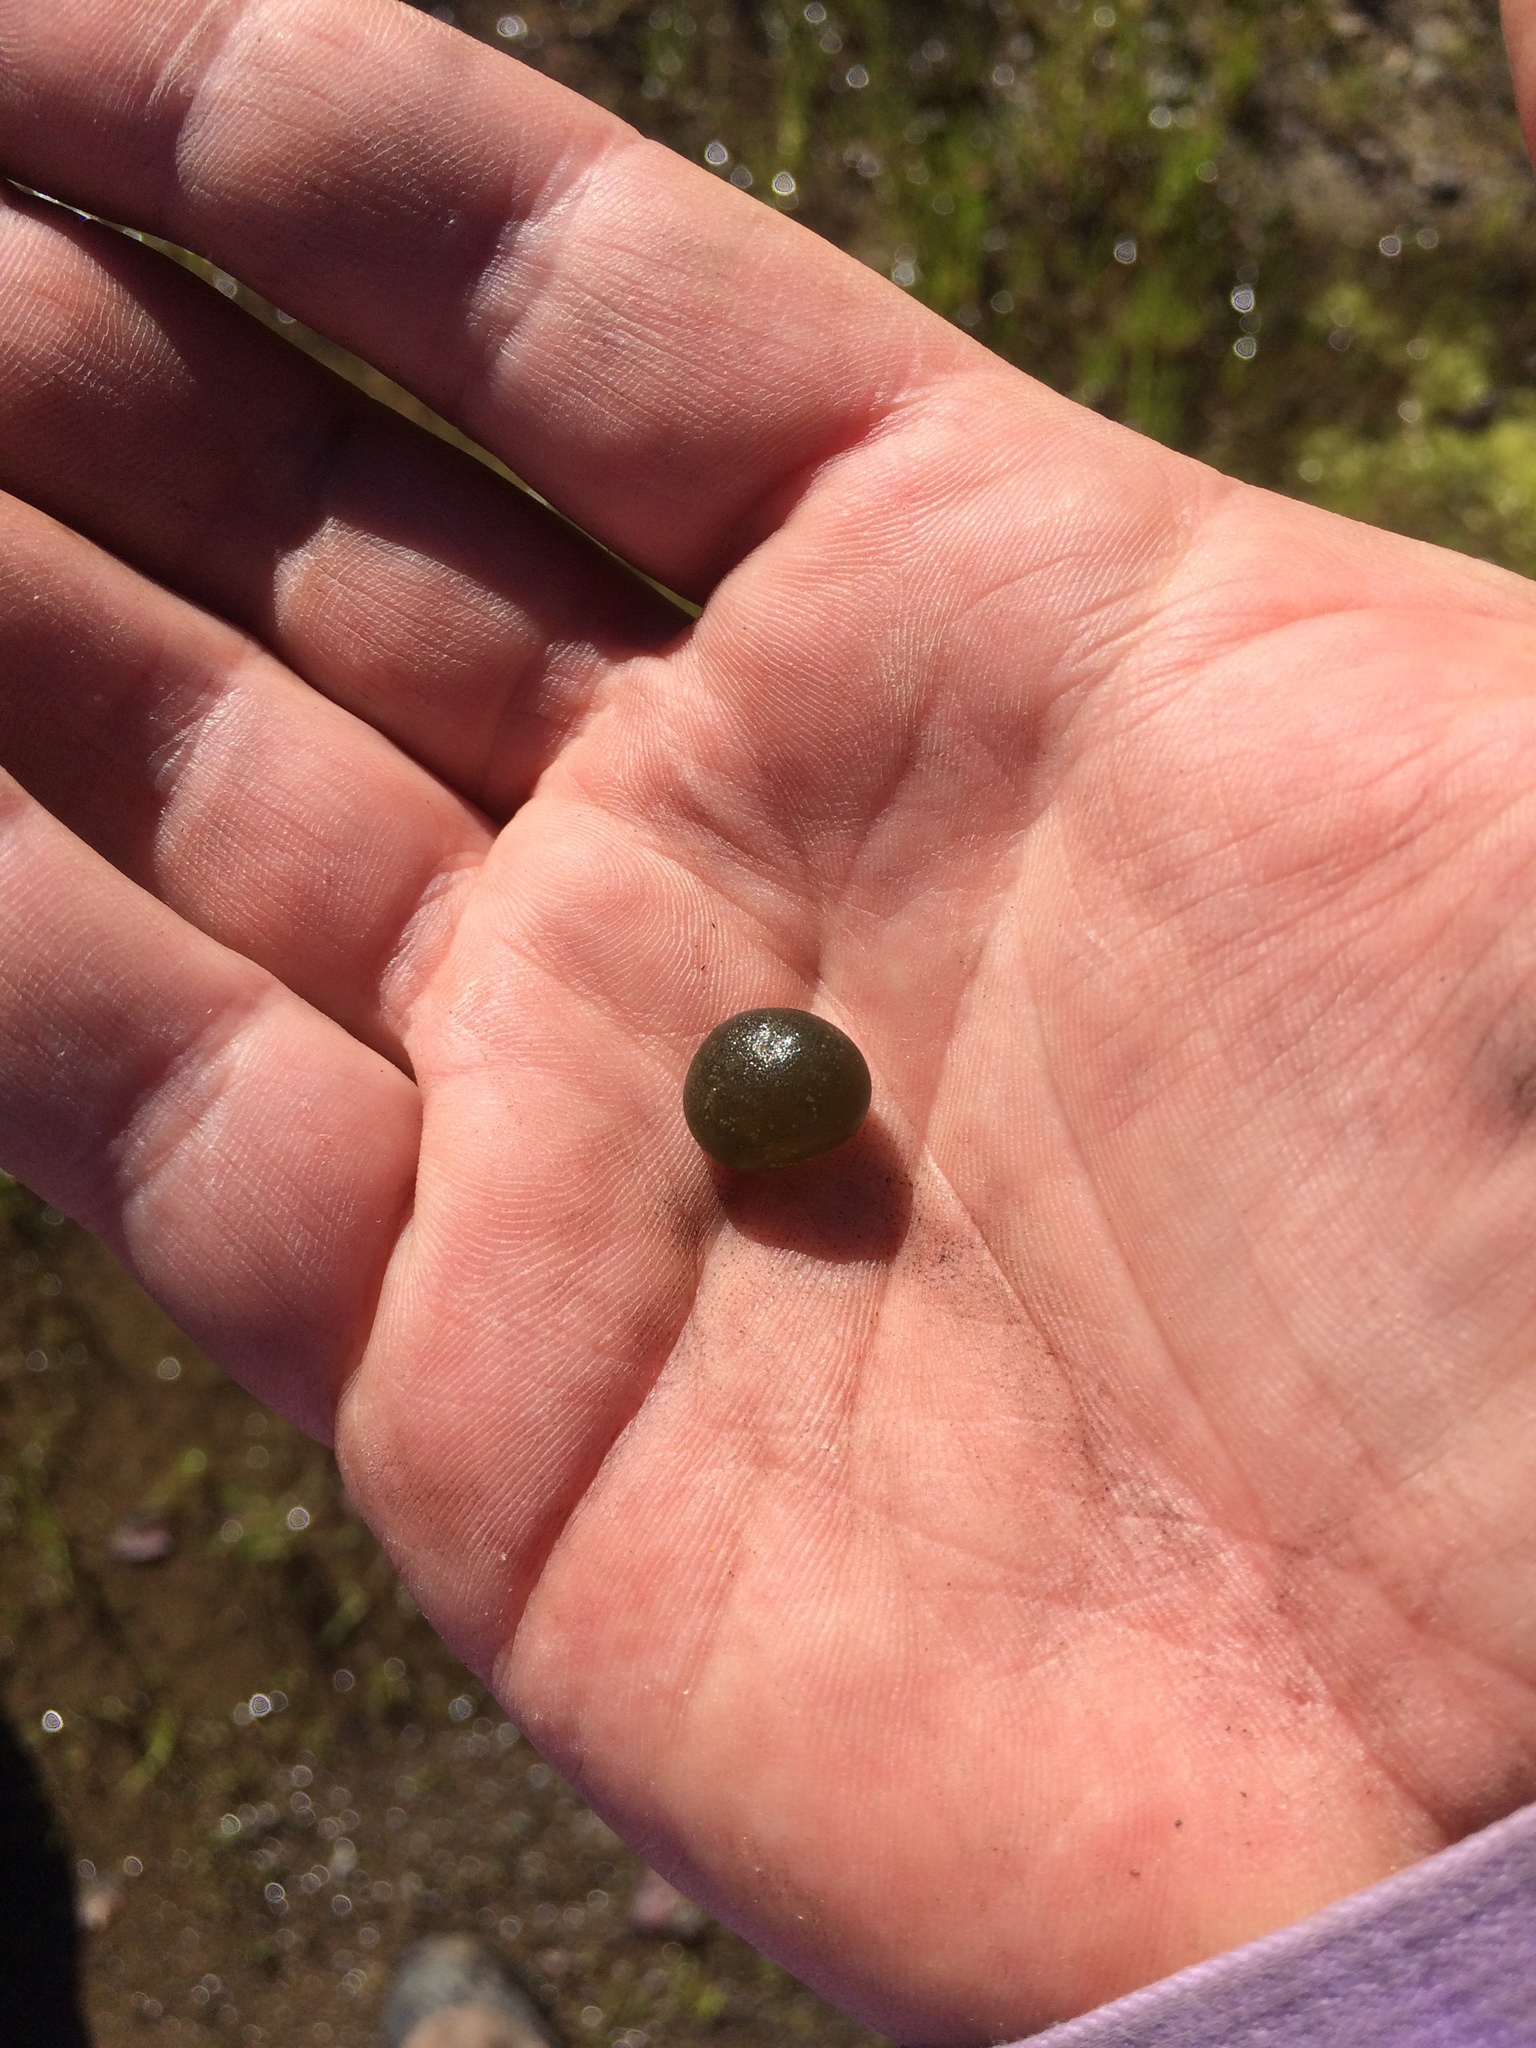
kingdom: Bacteria
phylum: Cyanobacteria
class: Cyanobacteriia
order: Cyanobacteriales
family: Nostocaceae
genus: Nostoc
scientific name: Nostoc
